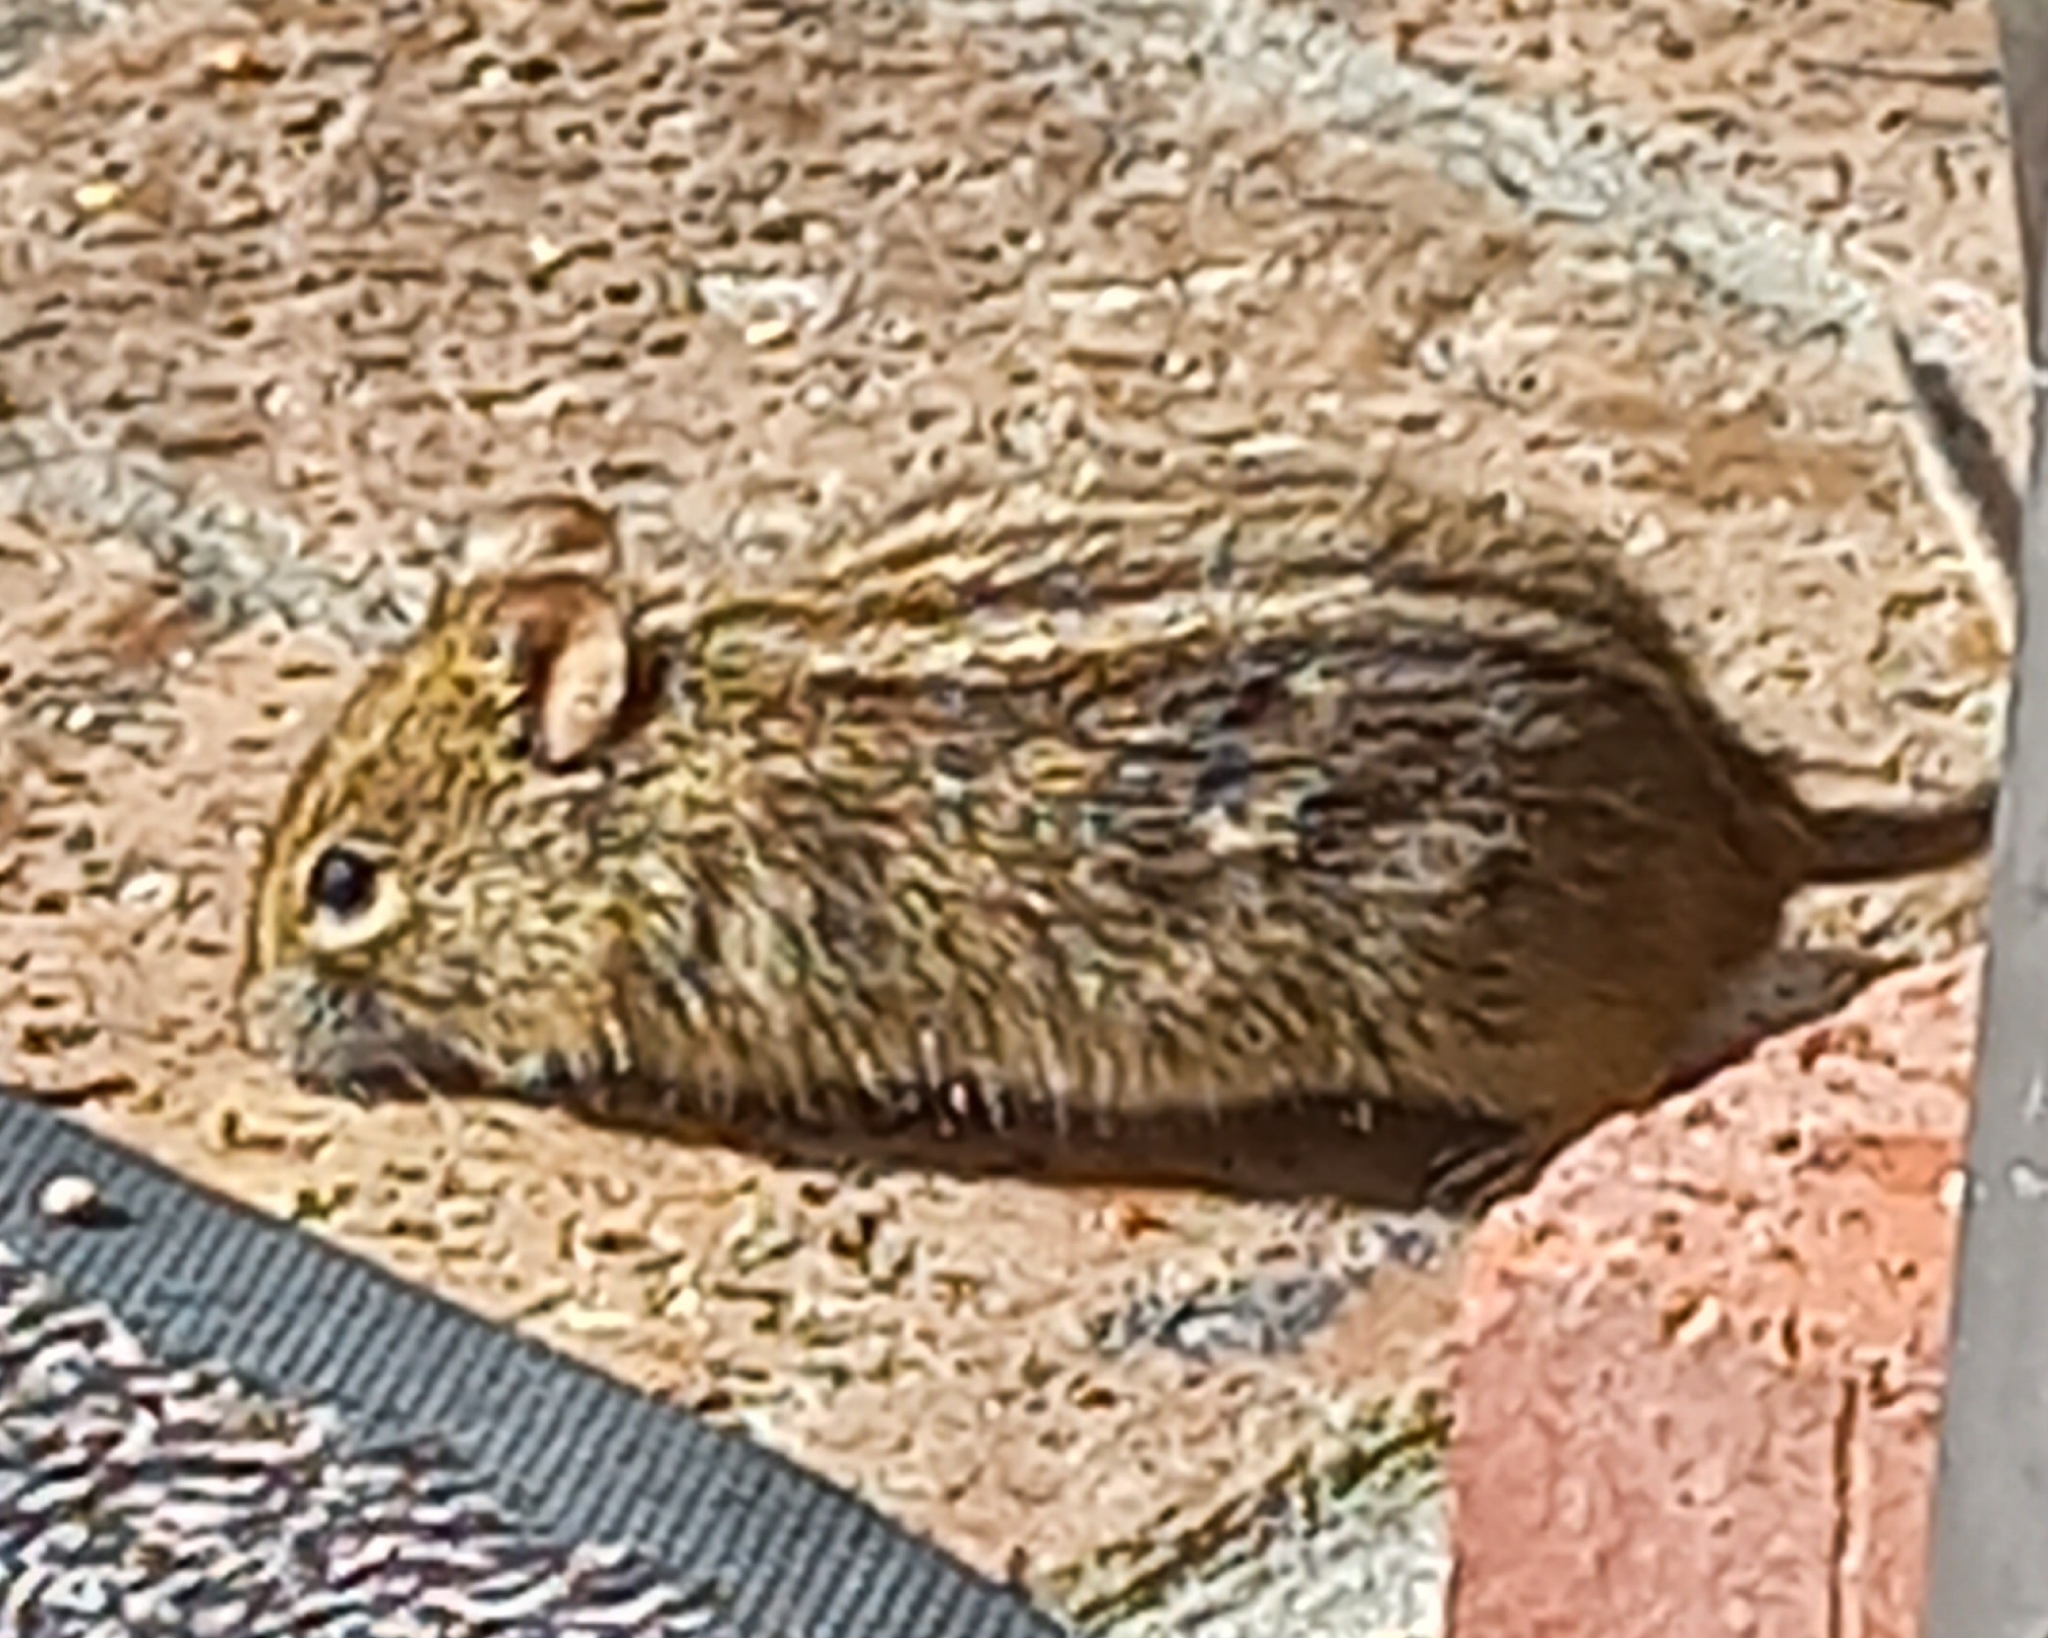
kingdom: Animalia
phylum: Chordata
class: Mammalia
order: Rodentia
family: Muridae
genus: Rhabdomys
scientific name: Rhabdomys pumilio
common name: Xeric four-striped grass rat
